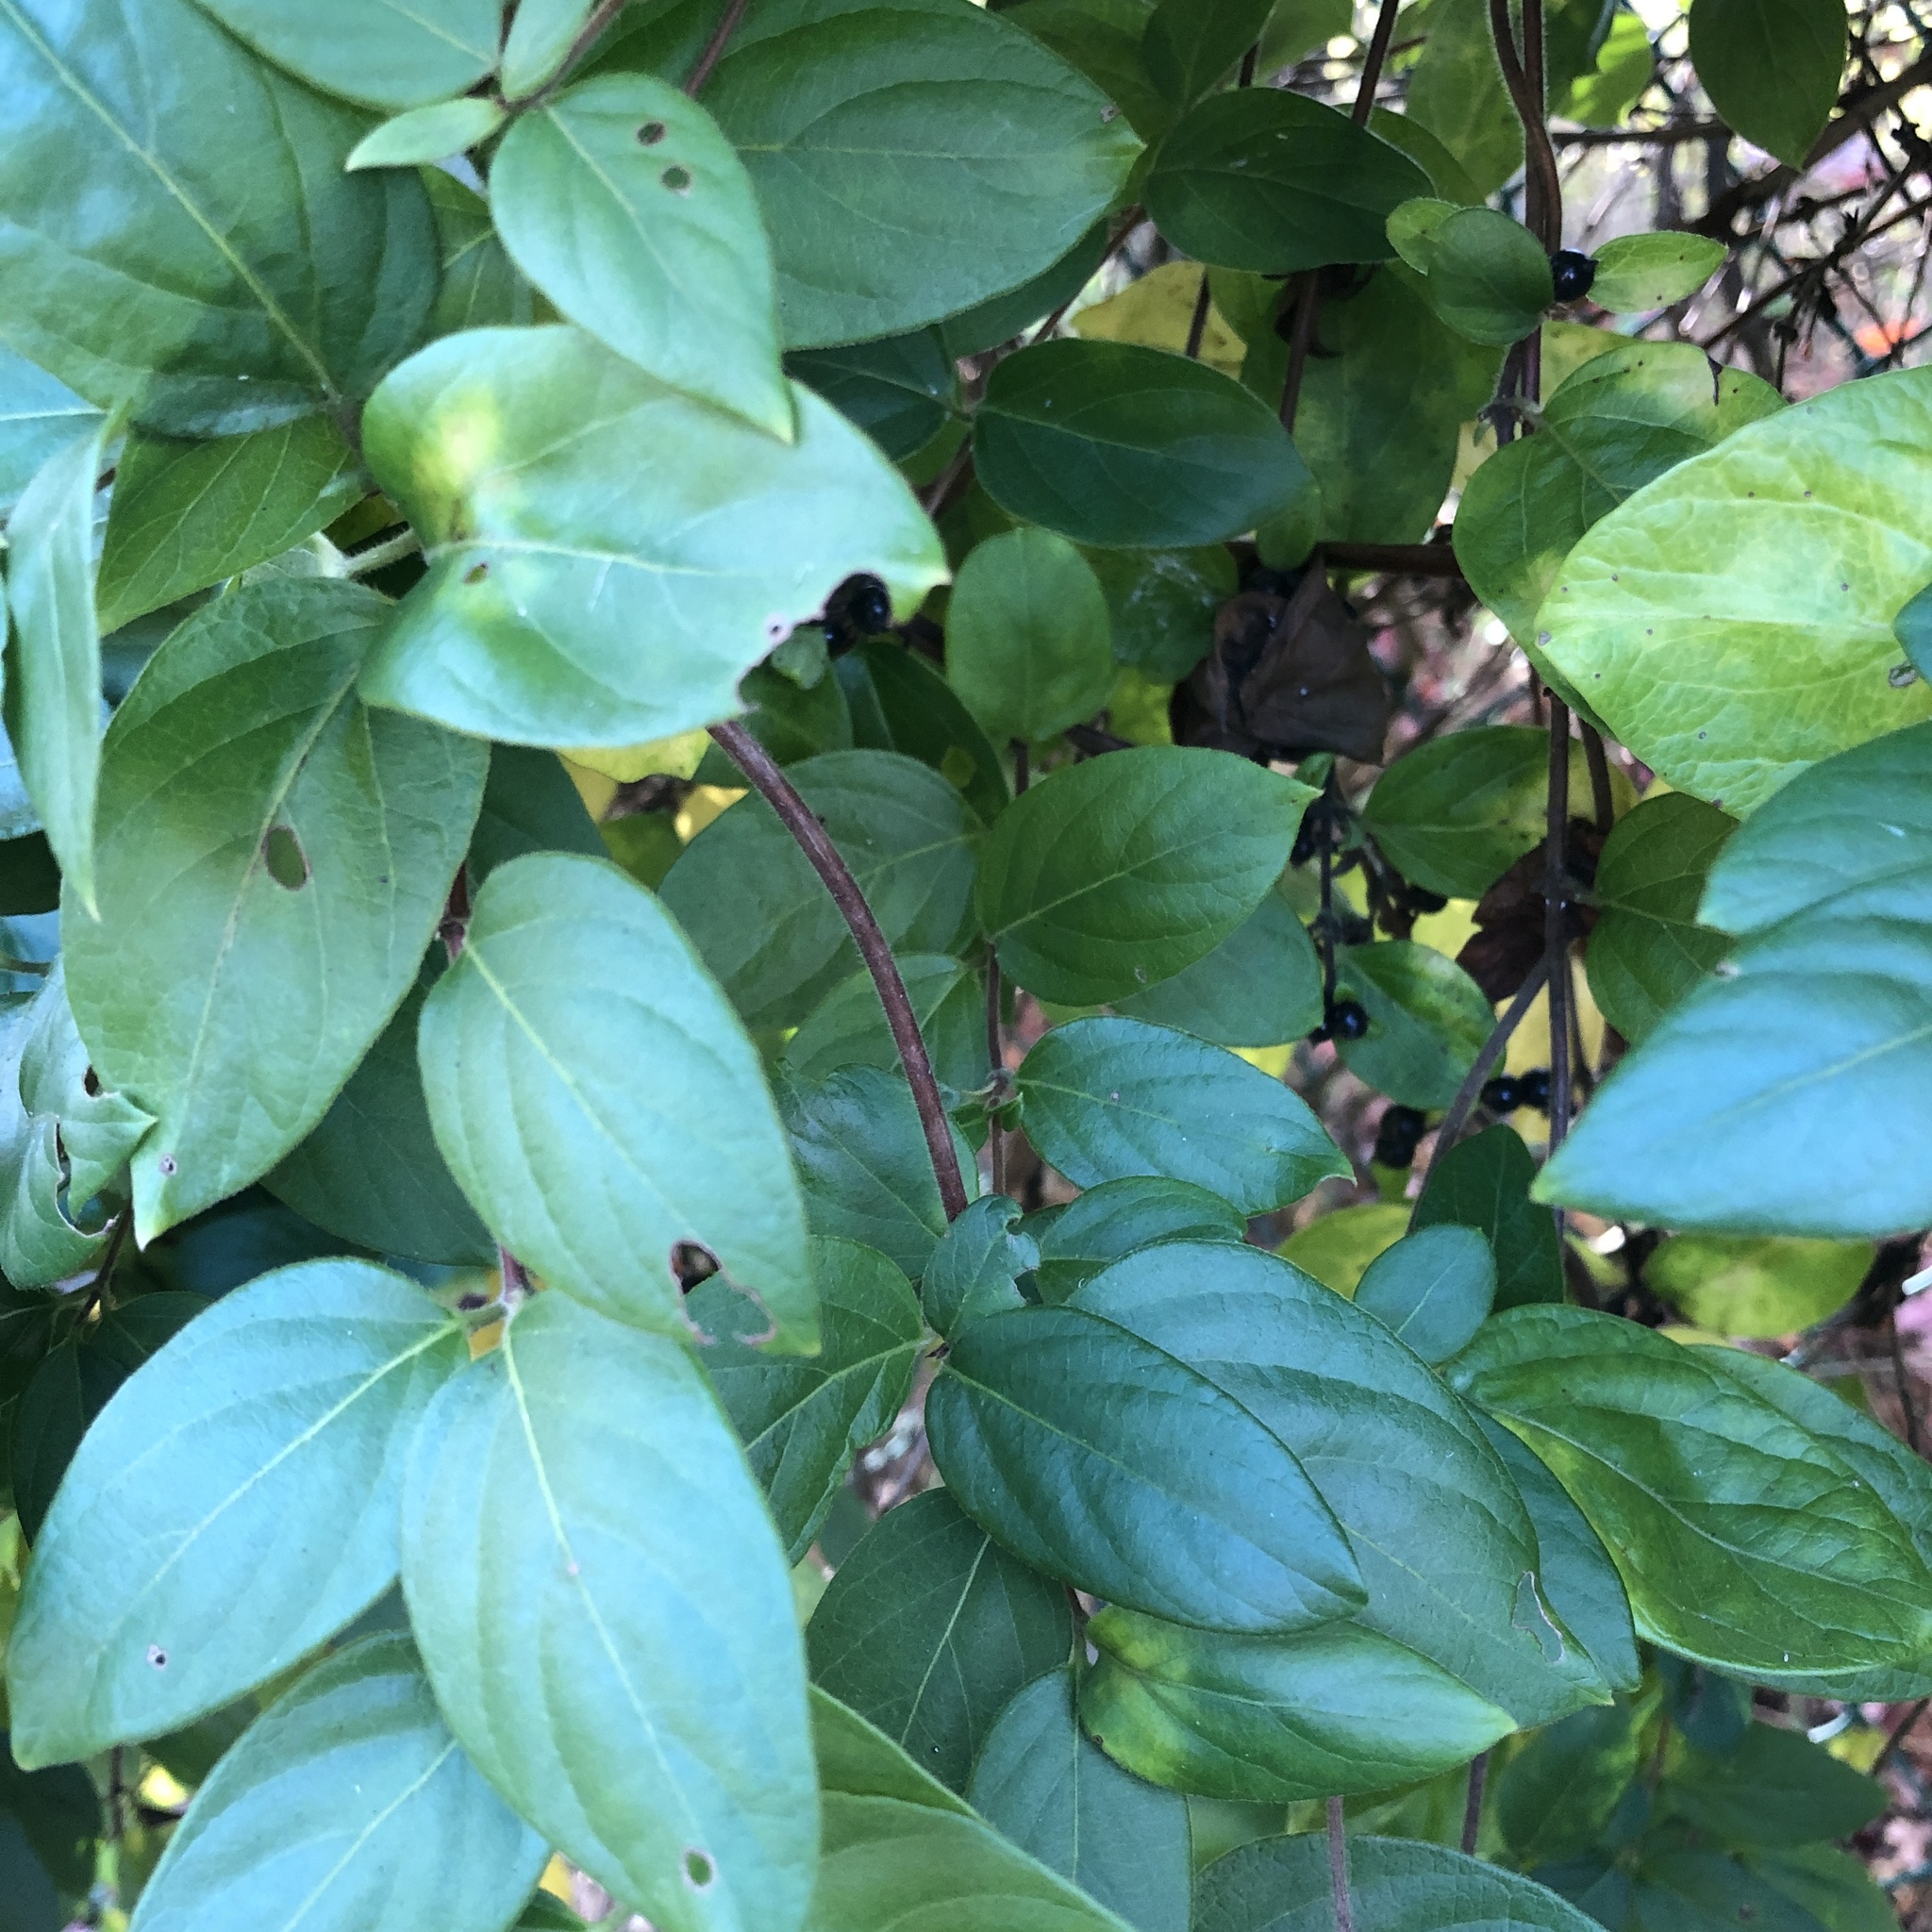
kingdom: Plantae
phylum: Tracheophyta
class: Magnoliopsida
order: Dipsacales
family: Caprifoliaceae
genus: Lonicera
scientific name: Lonicera japonica
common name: Japanese honeysuckle
